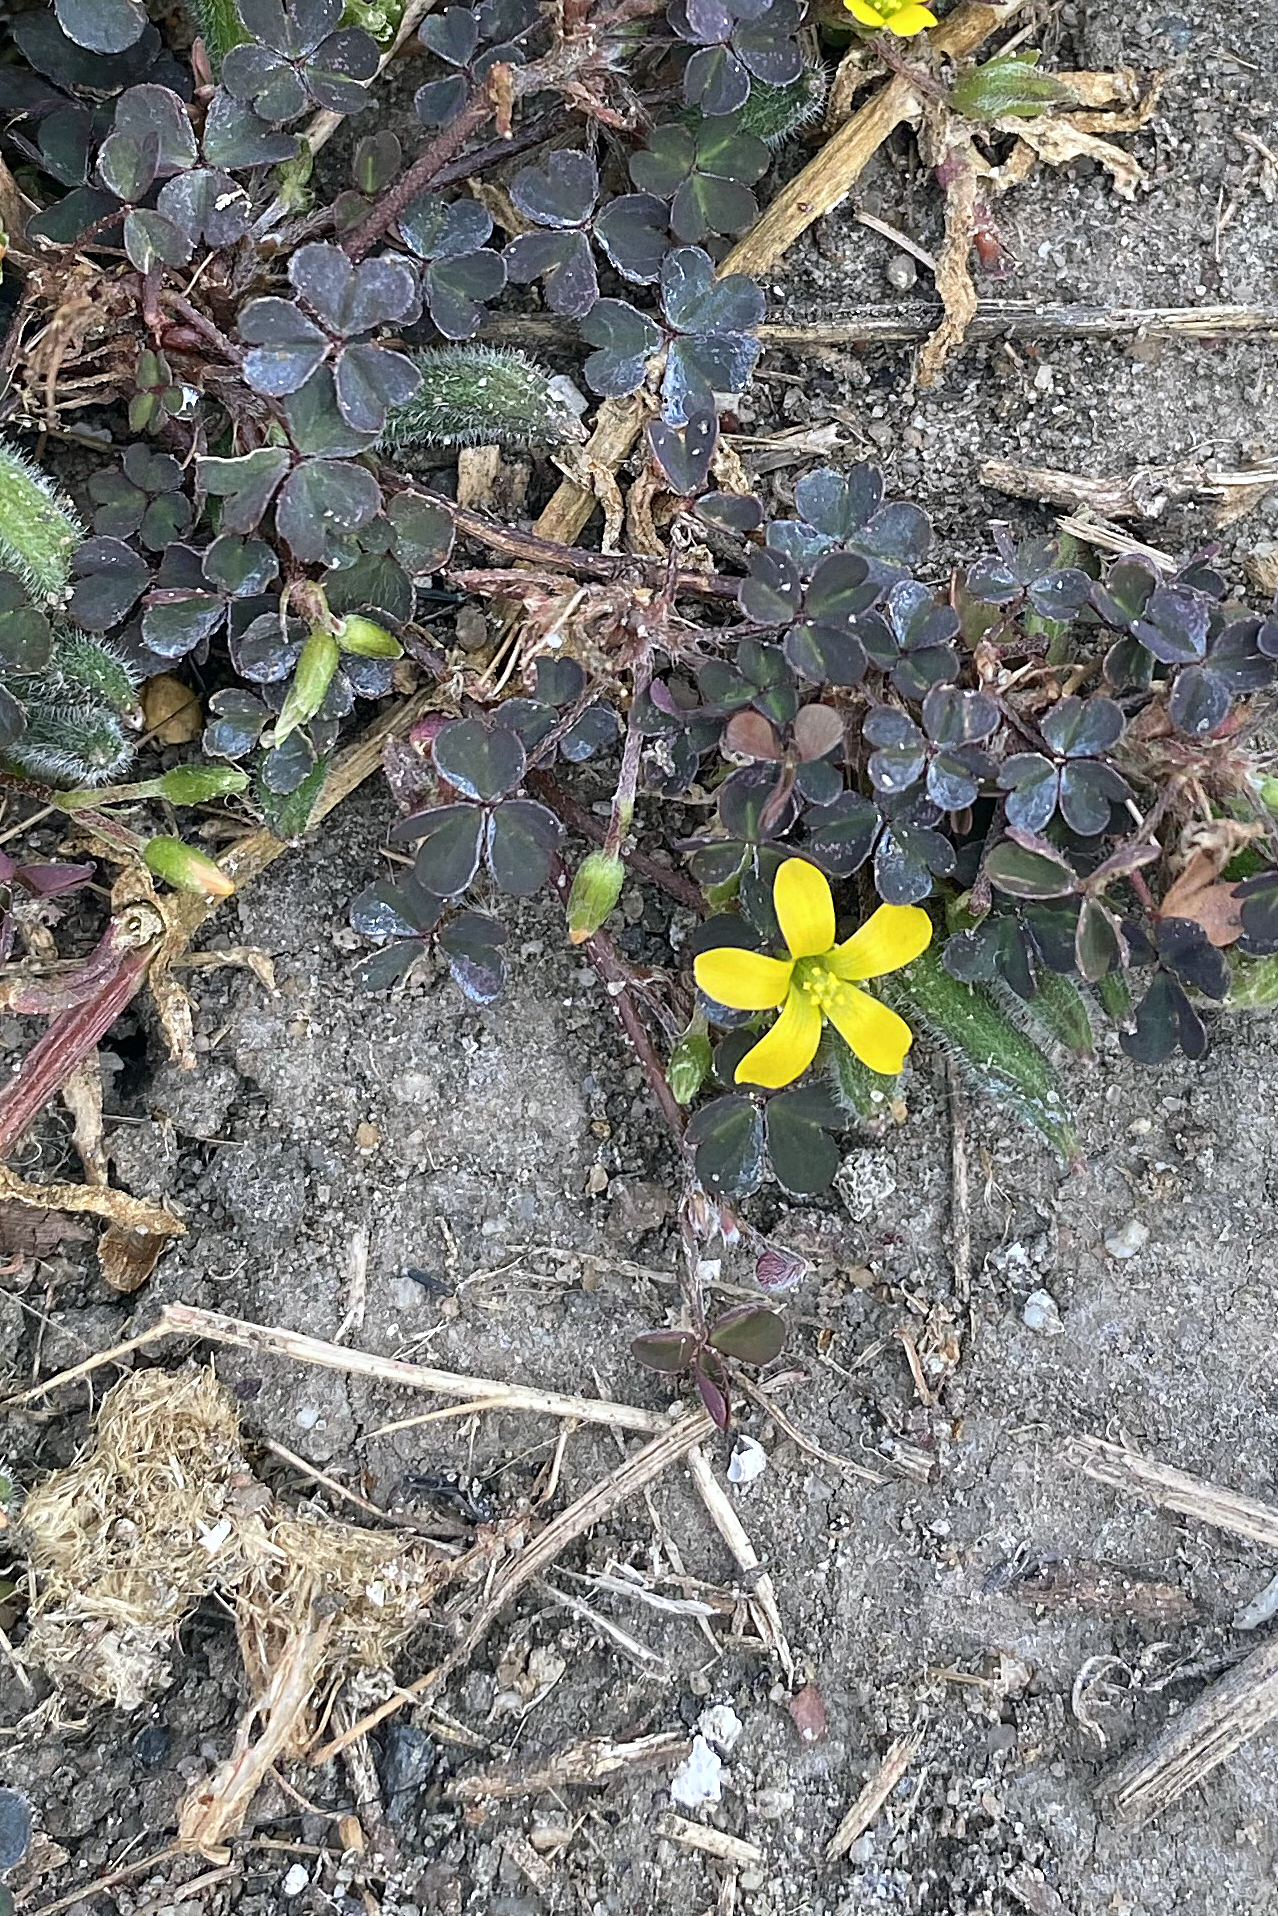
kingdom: Plantae
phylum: Tracheophyta
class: Magnoliopsida
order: Oxalidales
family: Oxalidaceae
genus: Oxalis
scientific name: Oxalis corniculata
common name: Procumbent yellow-sorrel
